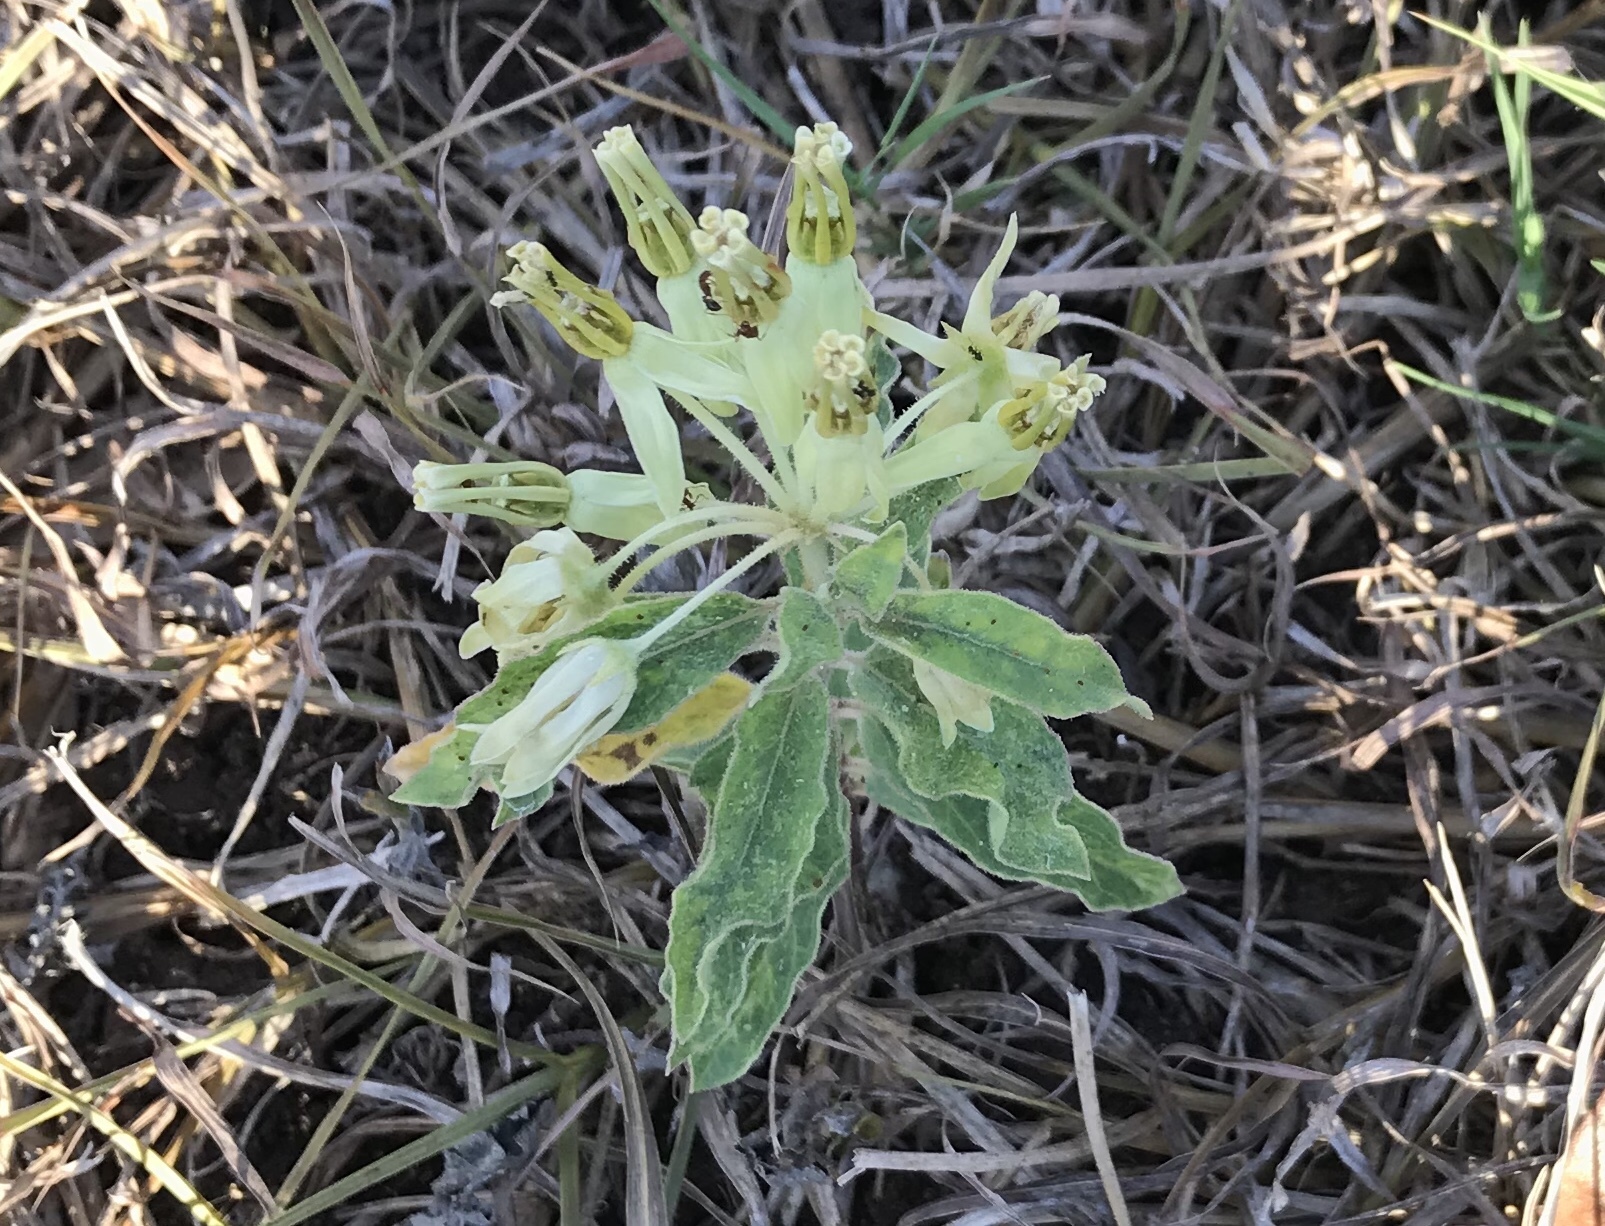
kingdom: Plantae
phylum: Tracheophyta
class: Magnoliopsida
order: Gentianales
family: Apocynaceae
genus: Asclepias
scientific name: Asclepias oenotheroides
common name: Zizotes milkweed
